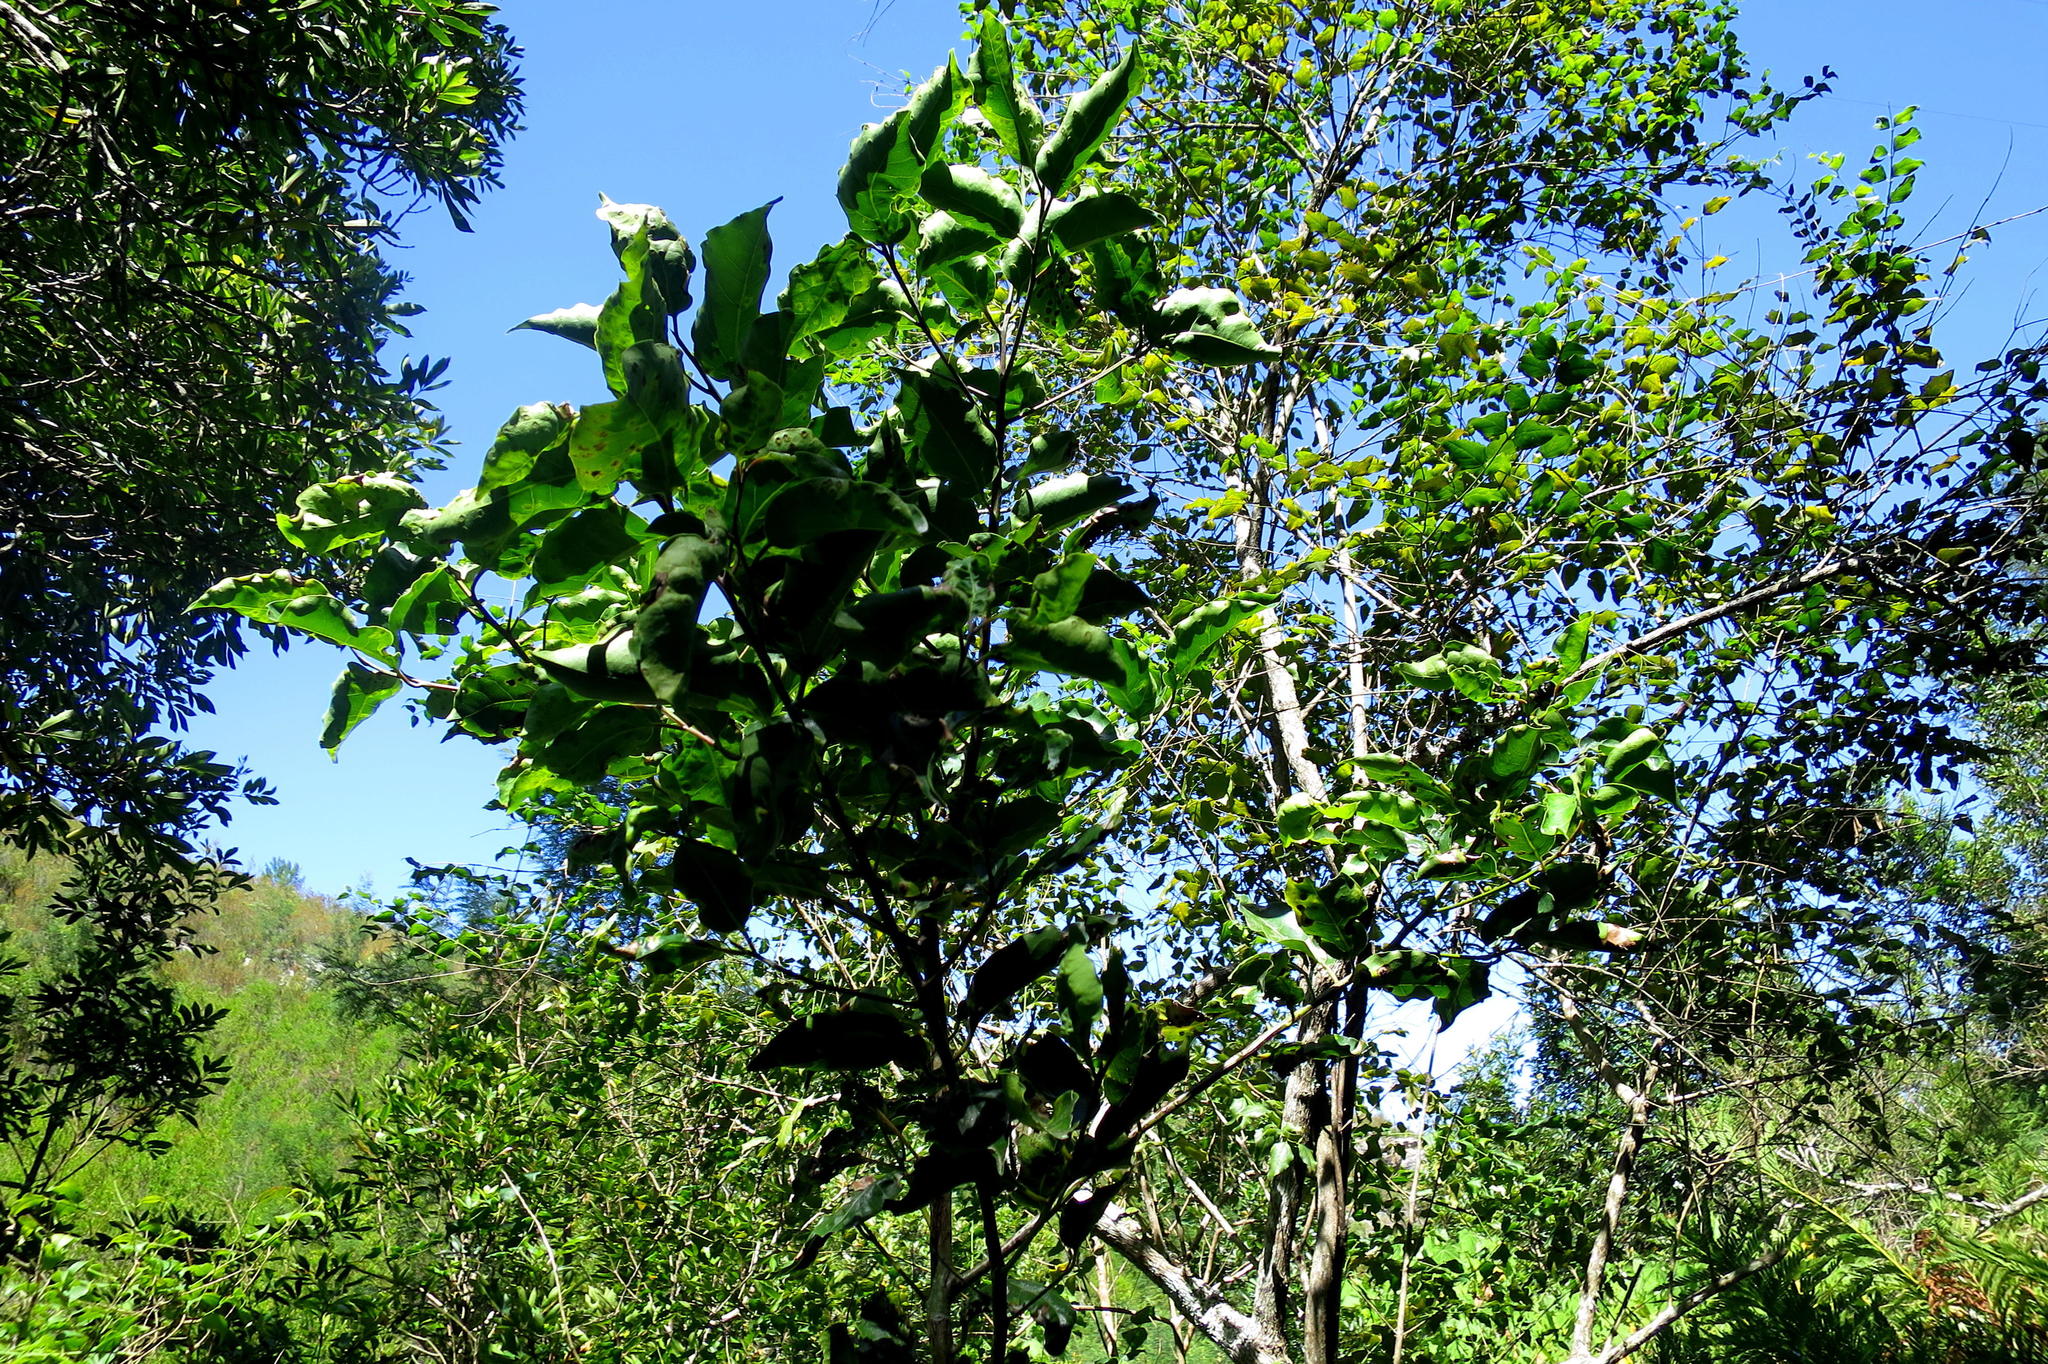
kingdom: Plantae
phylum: Tracheophyta
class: Magnoliopsida
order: Laurales
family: Lauraceae
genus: Ocotea
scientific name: Ocotea bullata
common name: Black stinkwood
